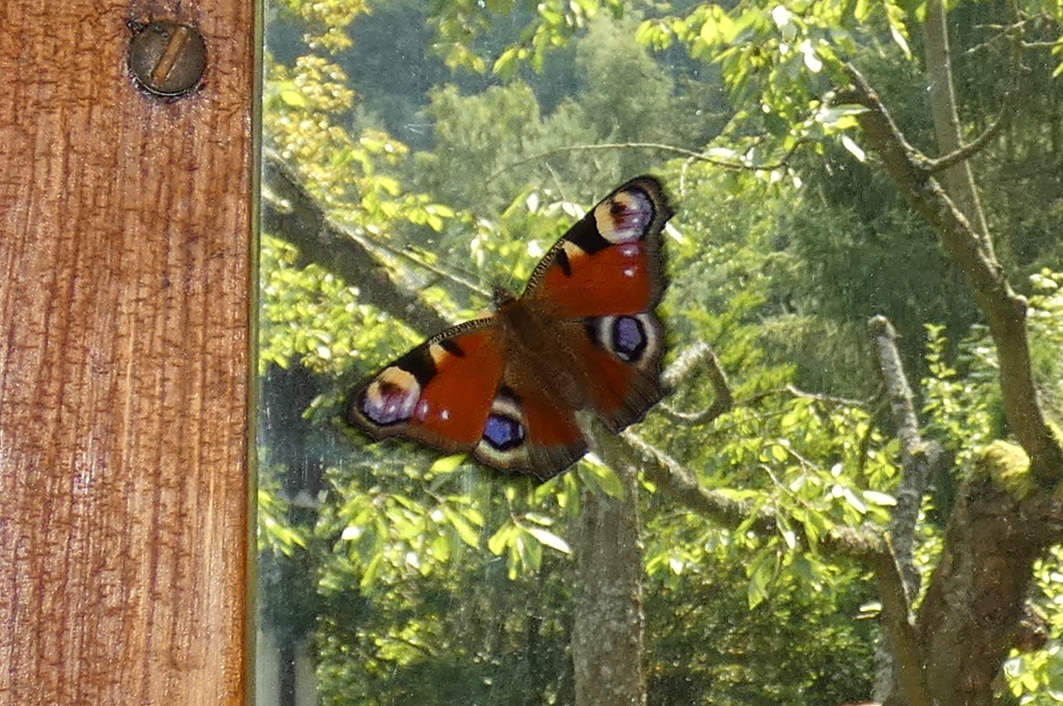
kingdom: Animalia
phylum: Arthropoda
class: Insecta
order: Lepidoptera
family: Nymphalidae
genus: Aglais
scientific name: Aglais io
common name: Peacock
